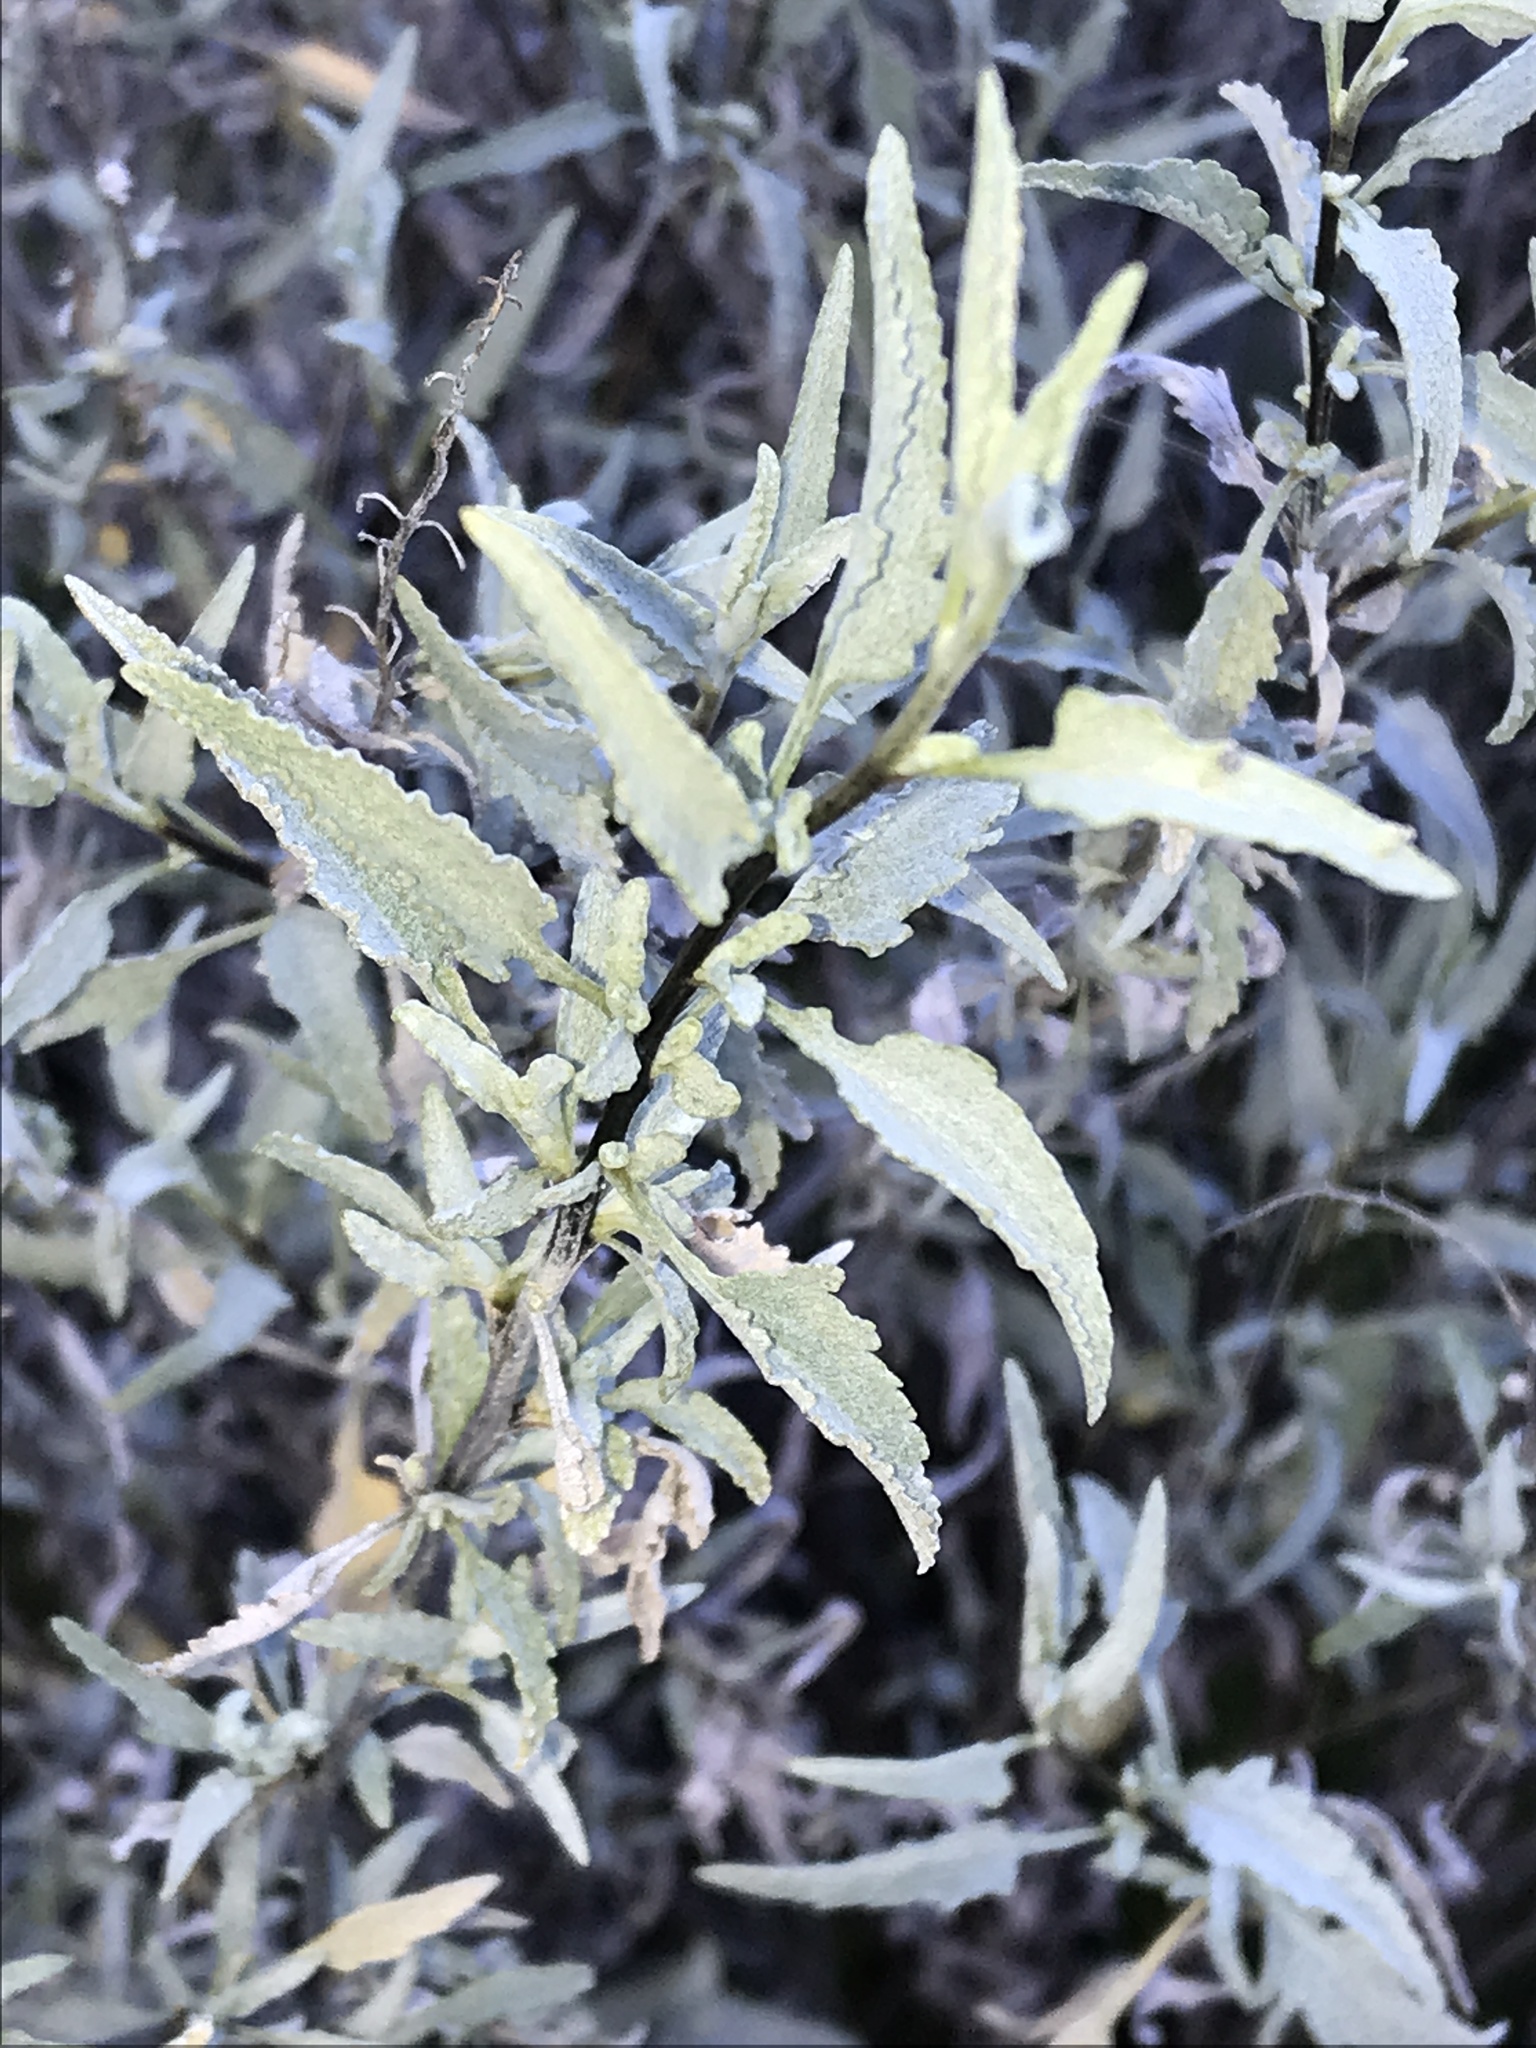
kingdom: Plantae
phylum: Tracheophyta
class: Magnoliopsida
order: Asterales
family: Asteraceae
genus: Ambrosia
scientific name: Ambrosia deltoidea
